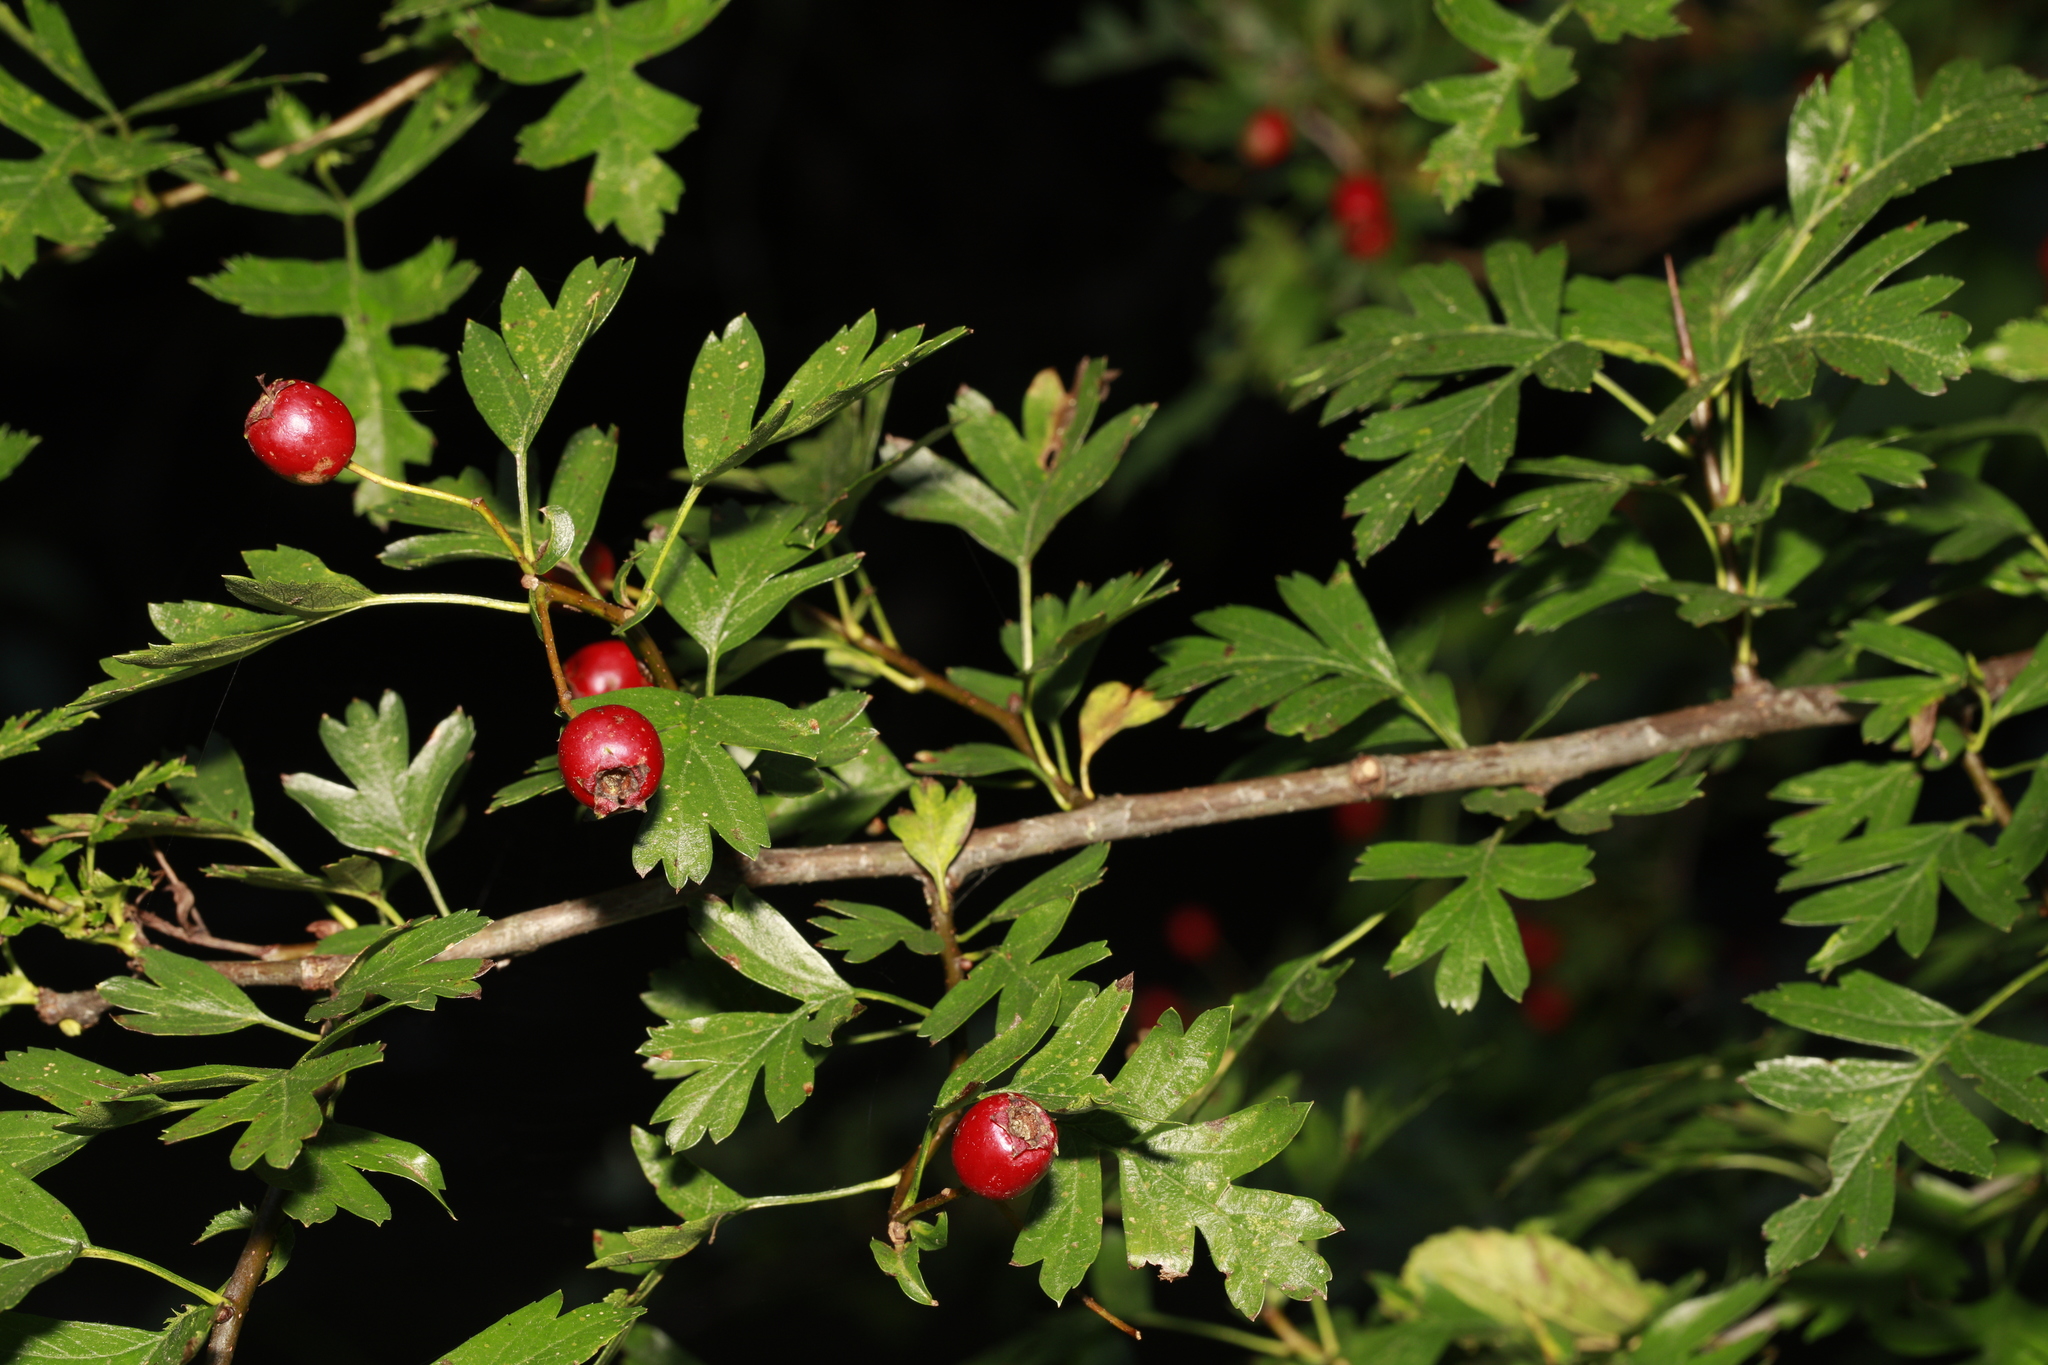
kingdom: Plantae
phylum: Tracheophyta
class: Magnoliopsida
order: Rosales
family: Rosaceae
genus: Crataegus
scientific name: Crataegus monogyna
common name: Hawthorn
